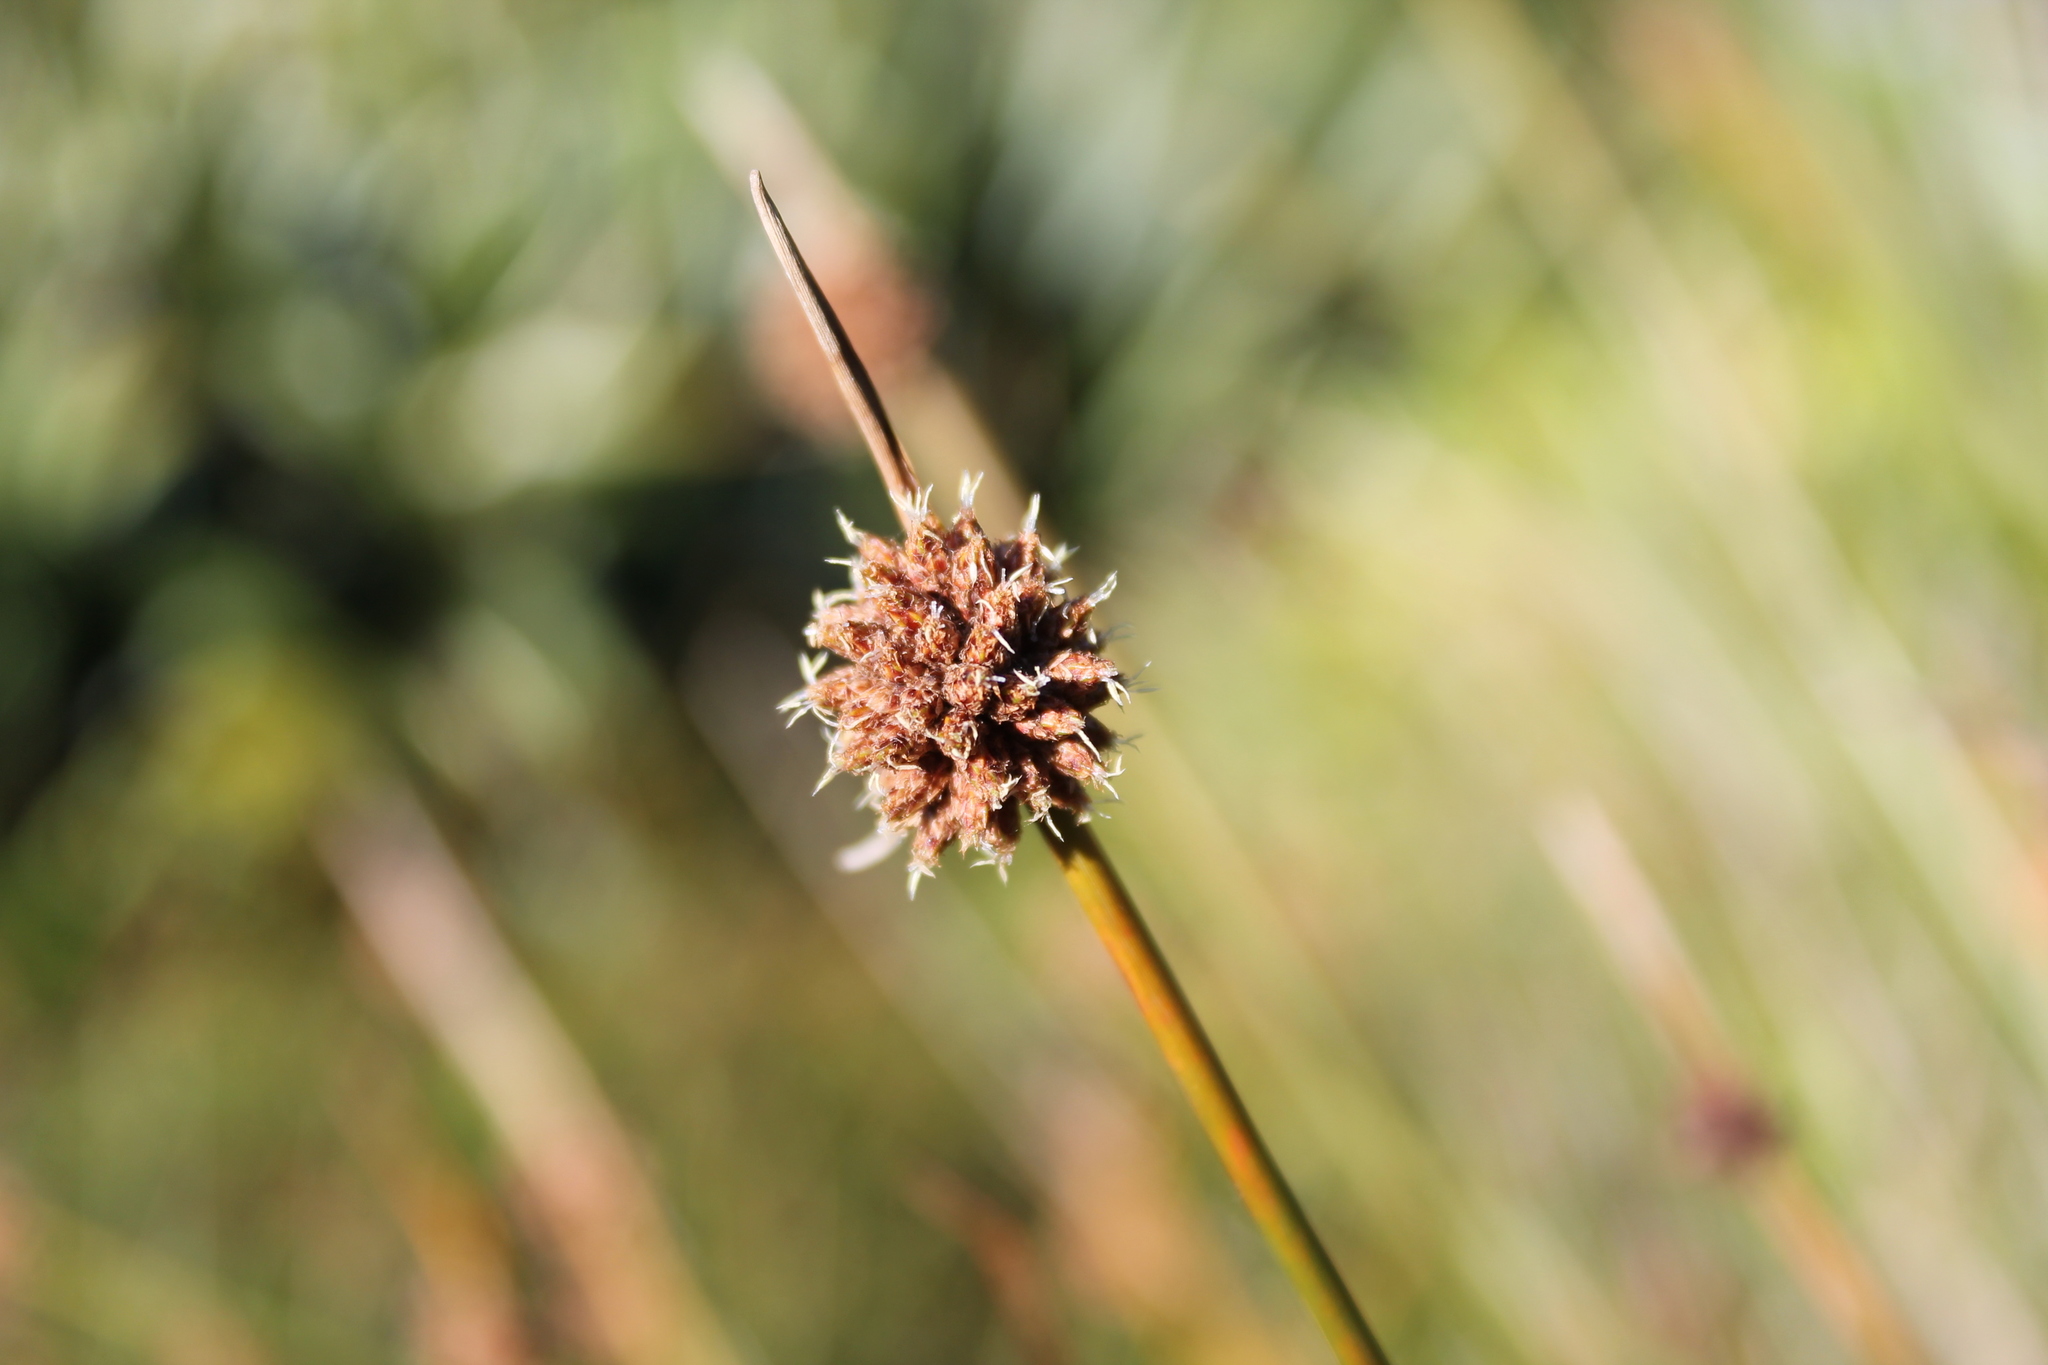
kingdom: Plantae
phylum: Tracheophyta
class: Liliopsida
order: Poales
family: Cyperaceae
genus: Ficinia
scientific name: Ficinia nodosa
